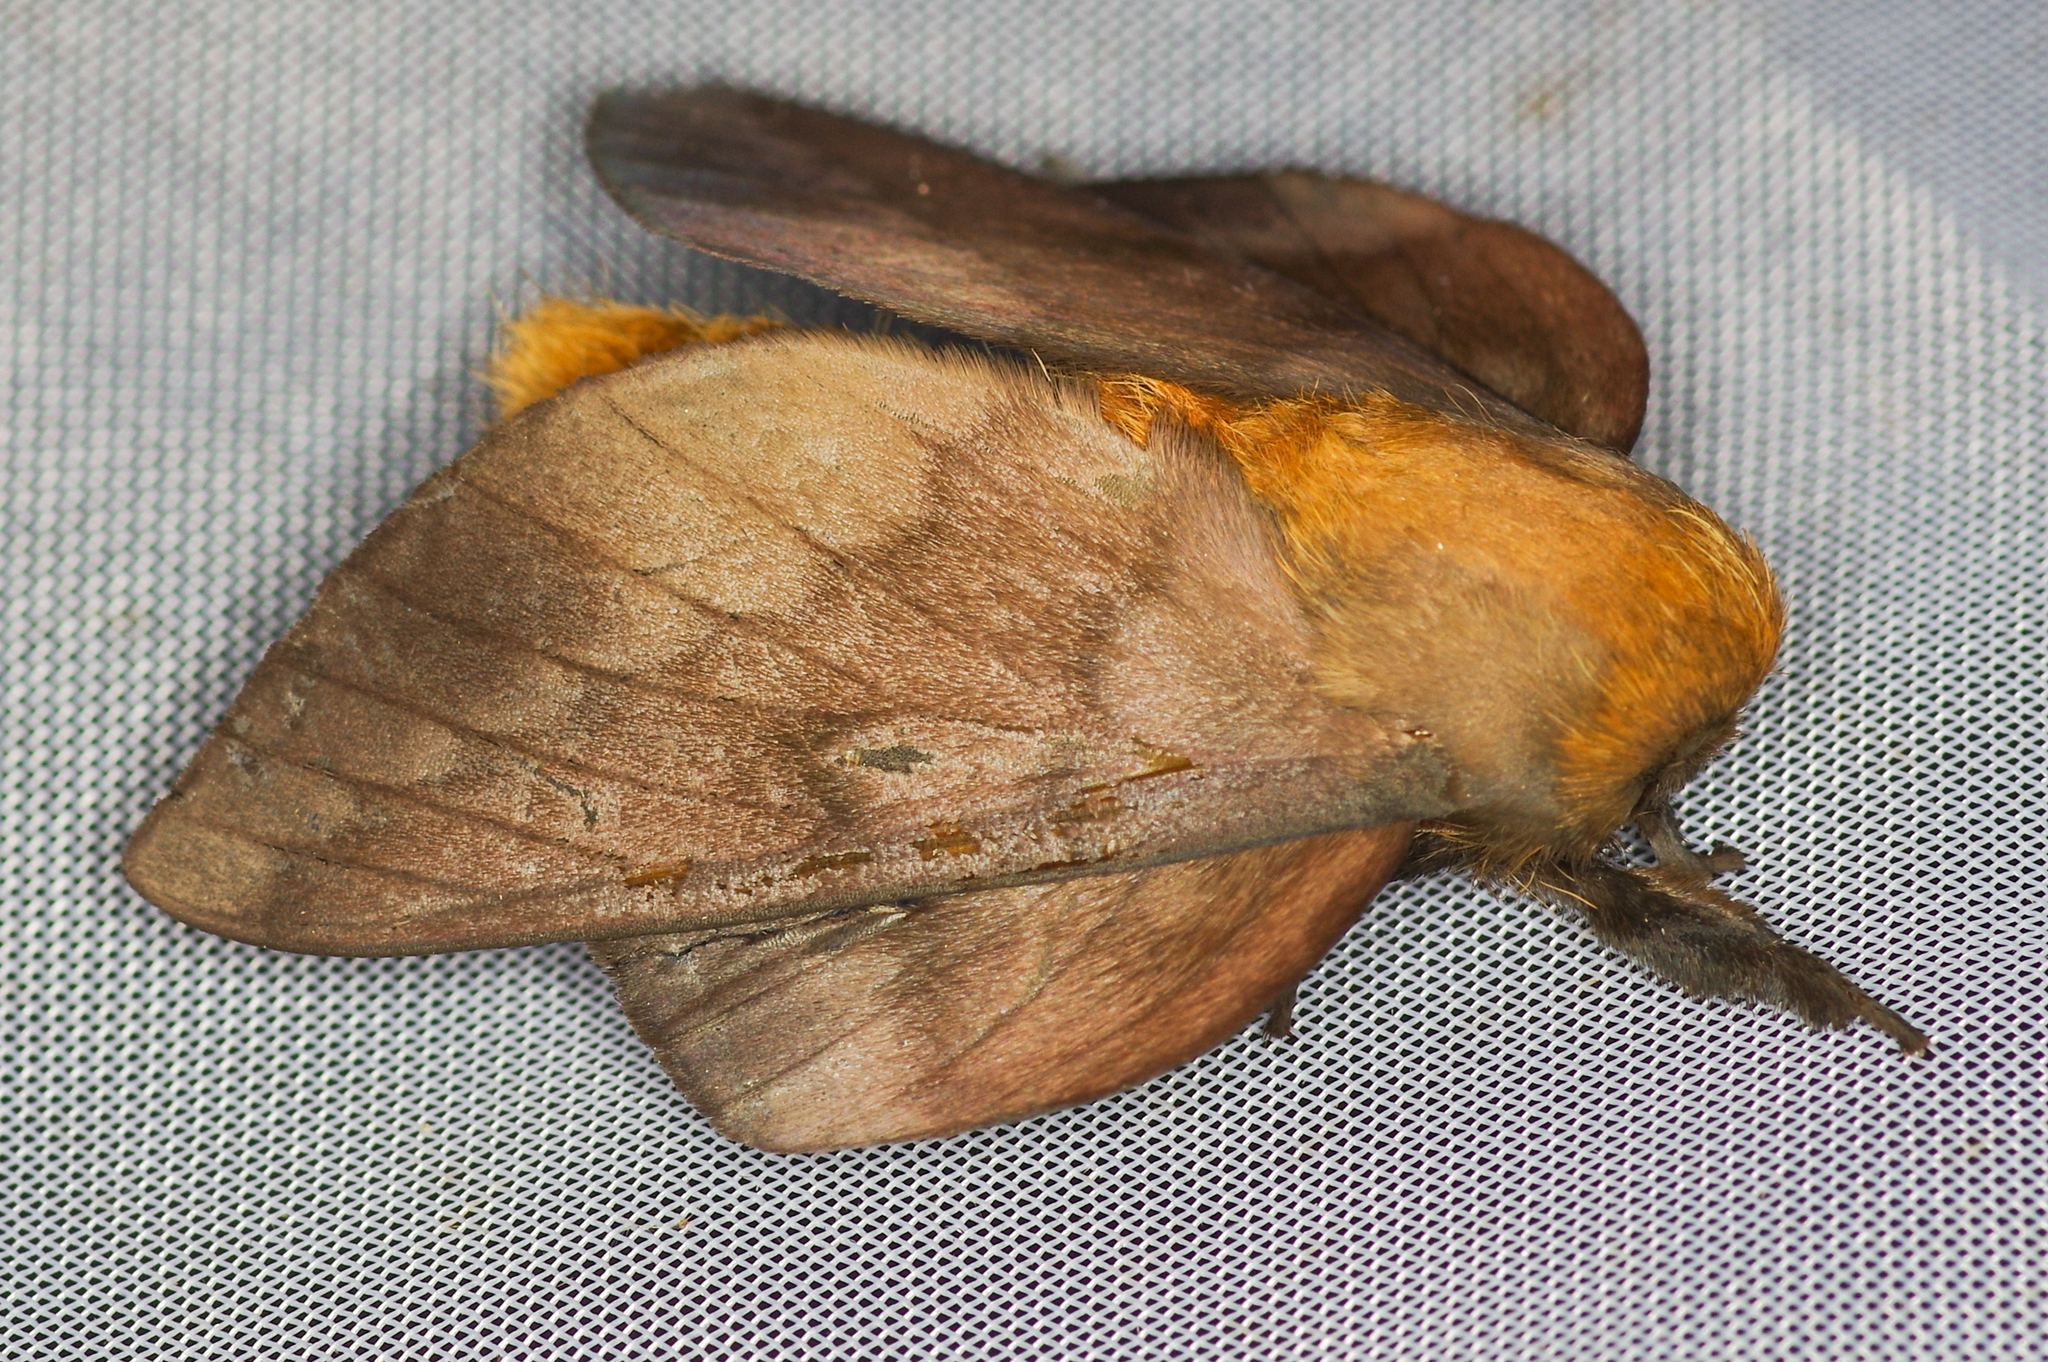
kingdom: Animalia
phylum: Arthropoda
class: Insecta
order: Lepidoptera
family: Saturniidae
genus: Ptiloscola
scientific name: Ptiloscola photophila
